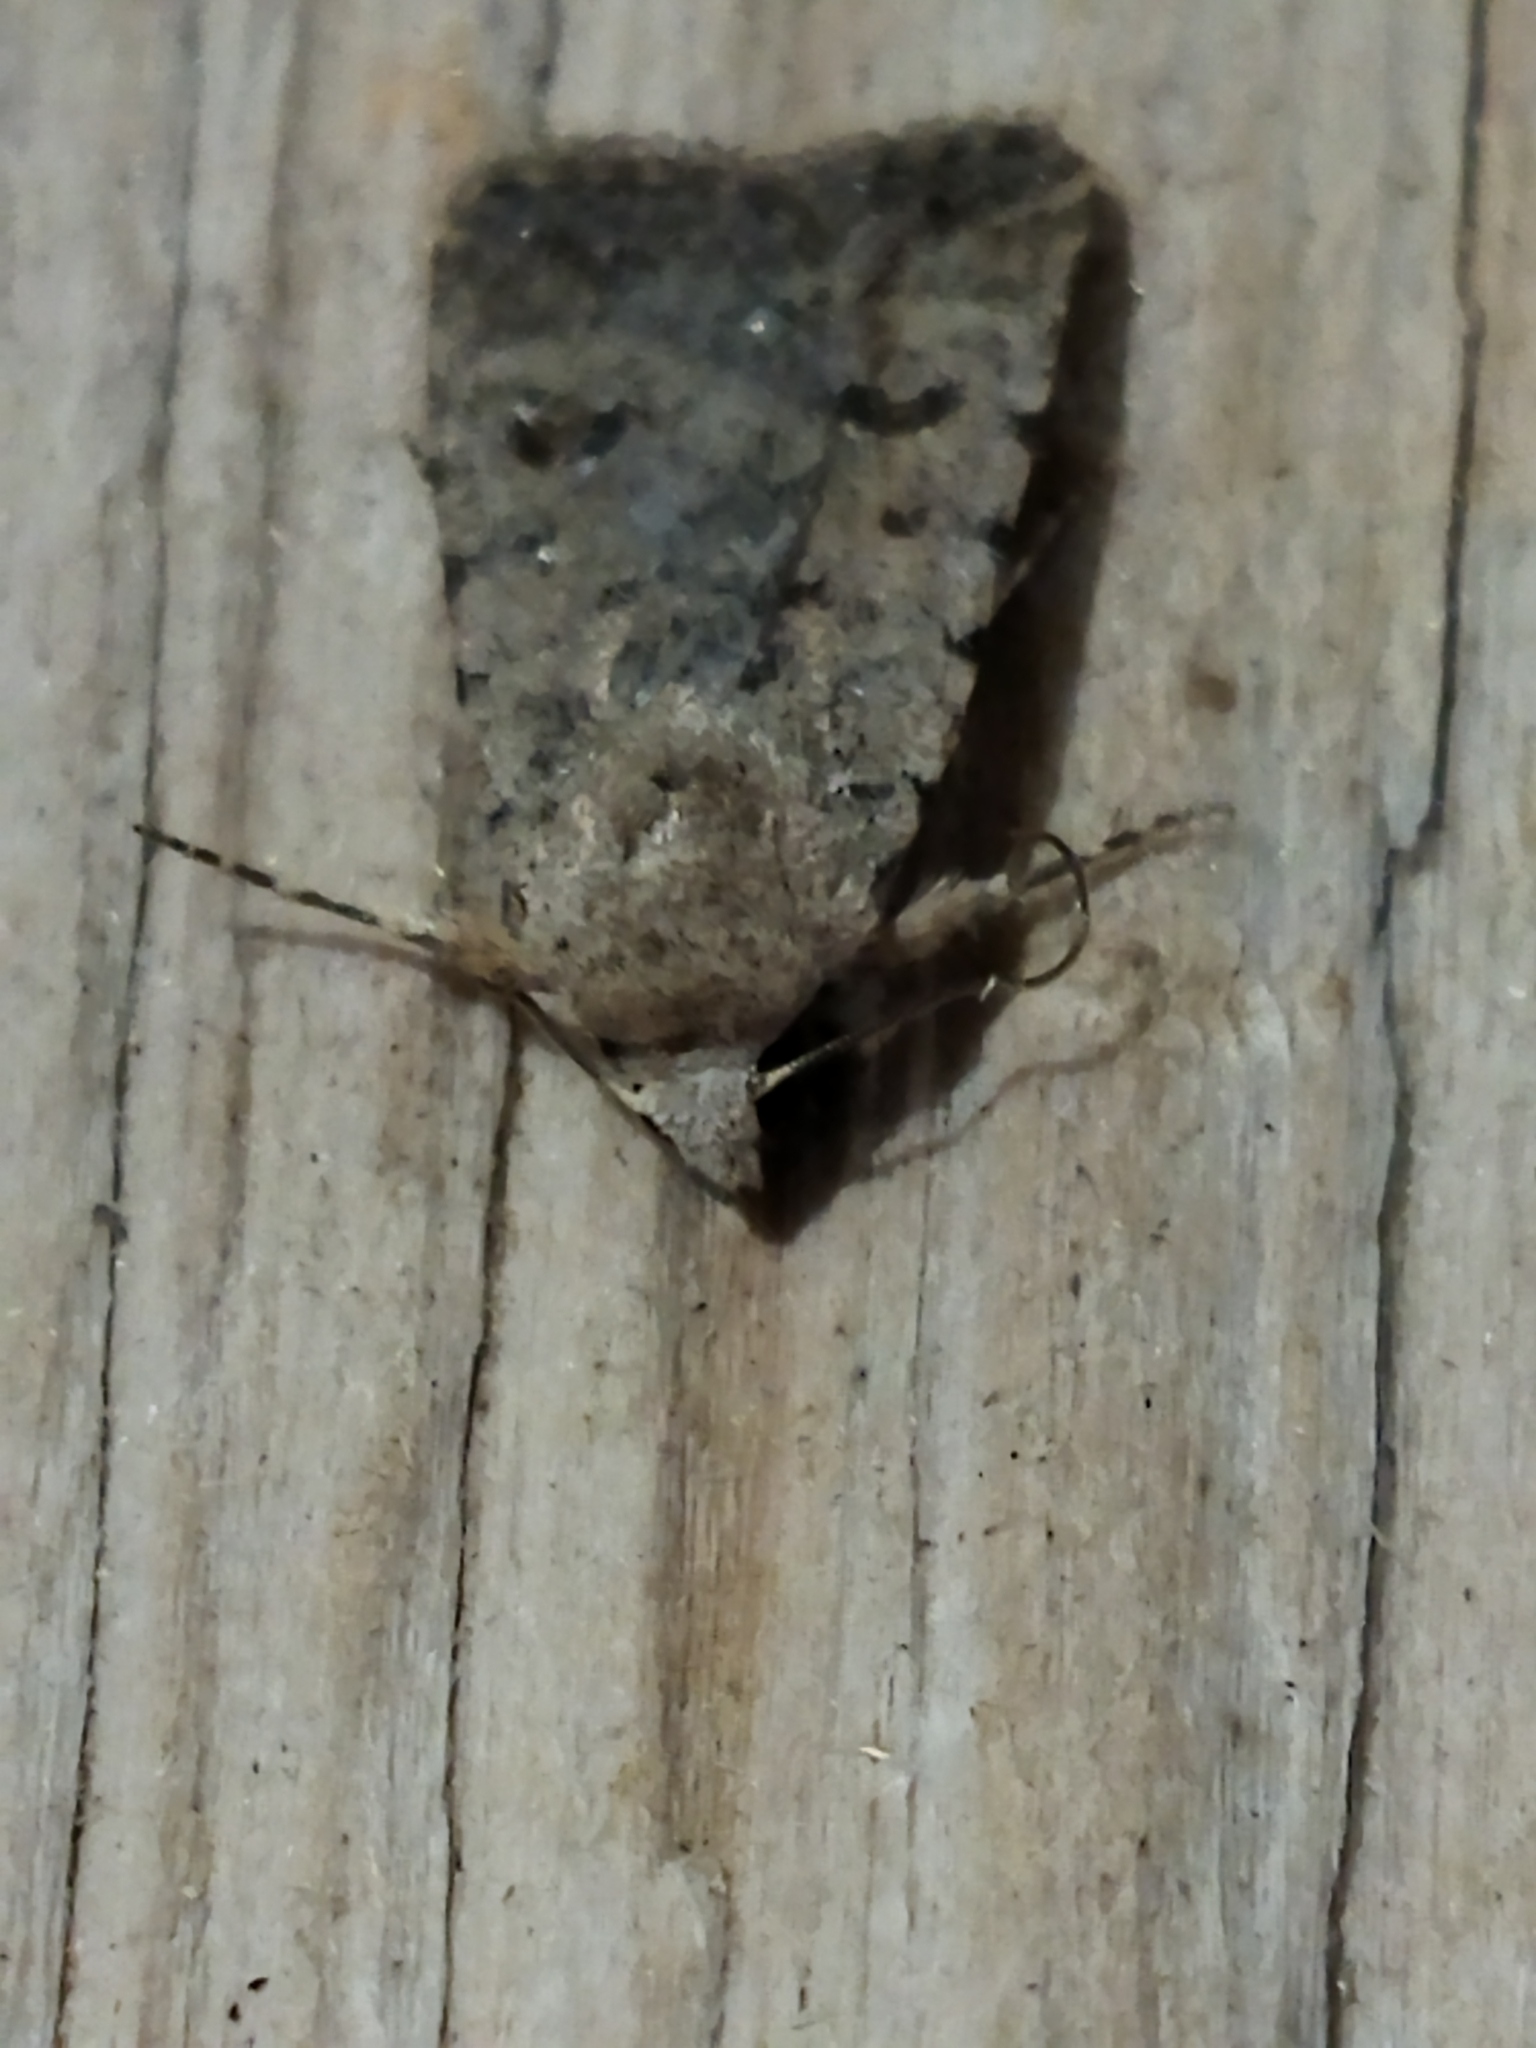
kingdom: Animalia
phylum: Arthropoda
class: Insecta
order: Lepidoptera
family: Noctuidae
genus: Caradrina
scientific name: Caradrina clavipalpis
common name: Pale mottled willow
